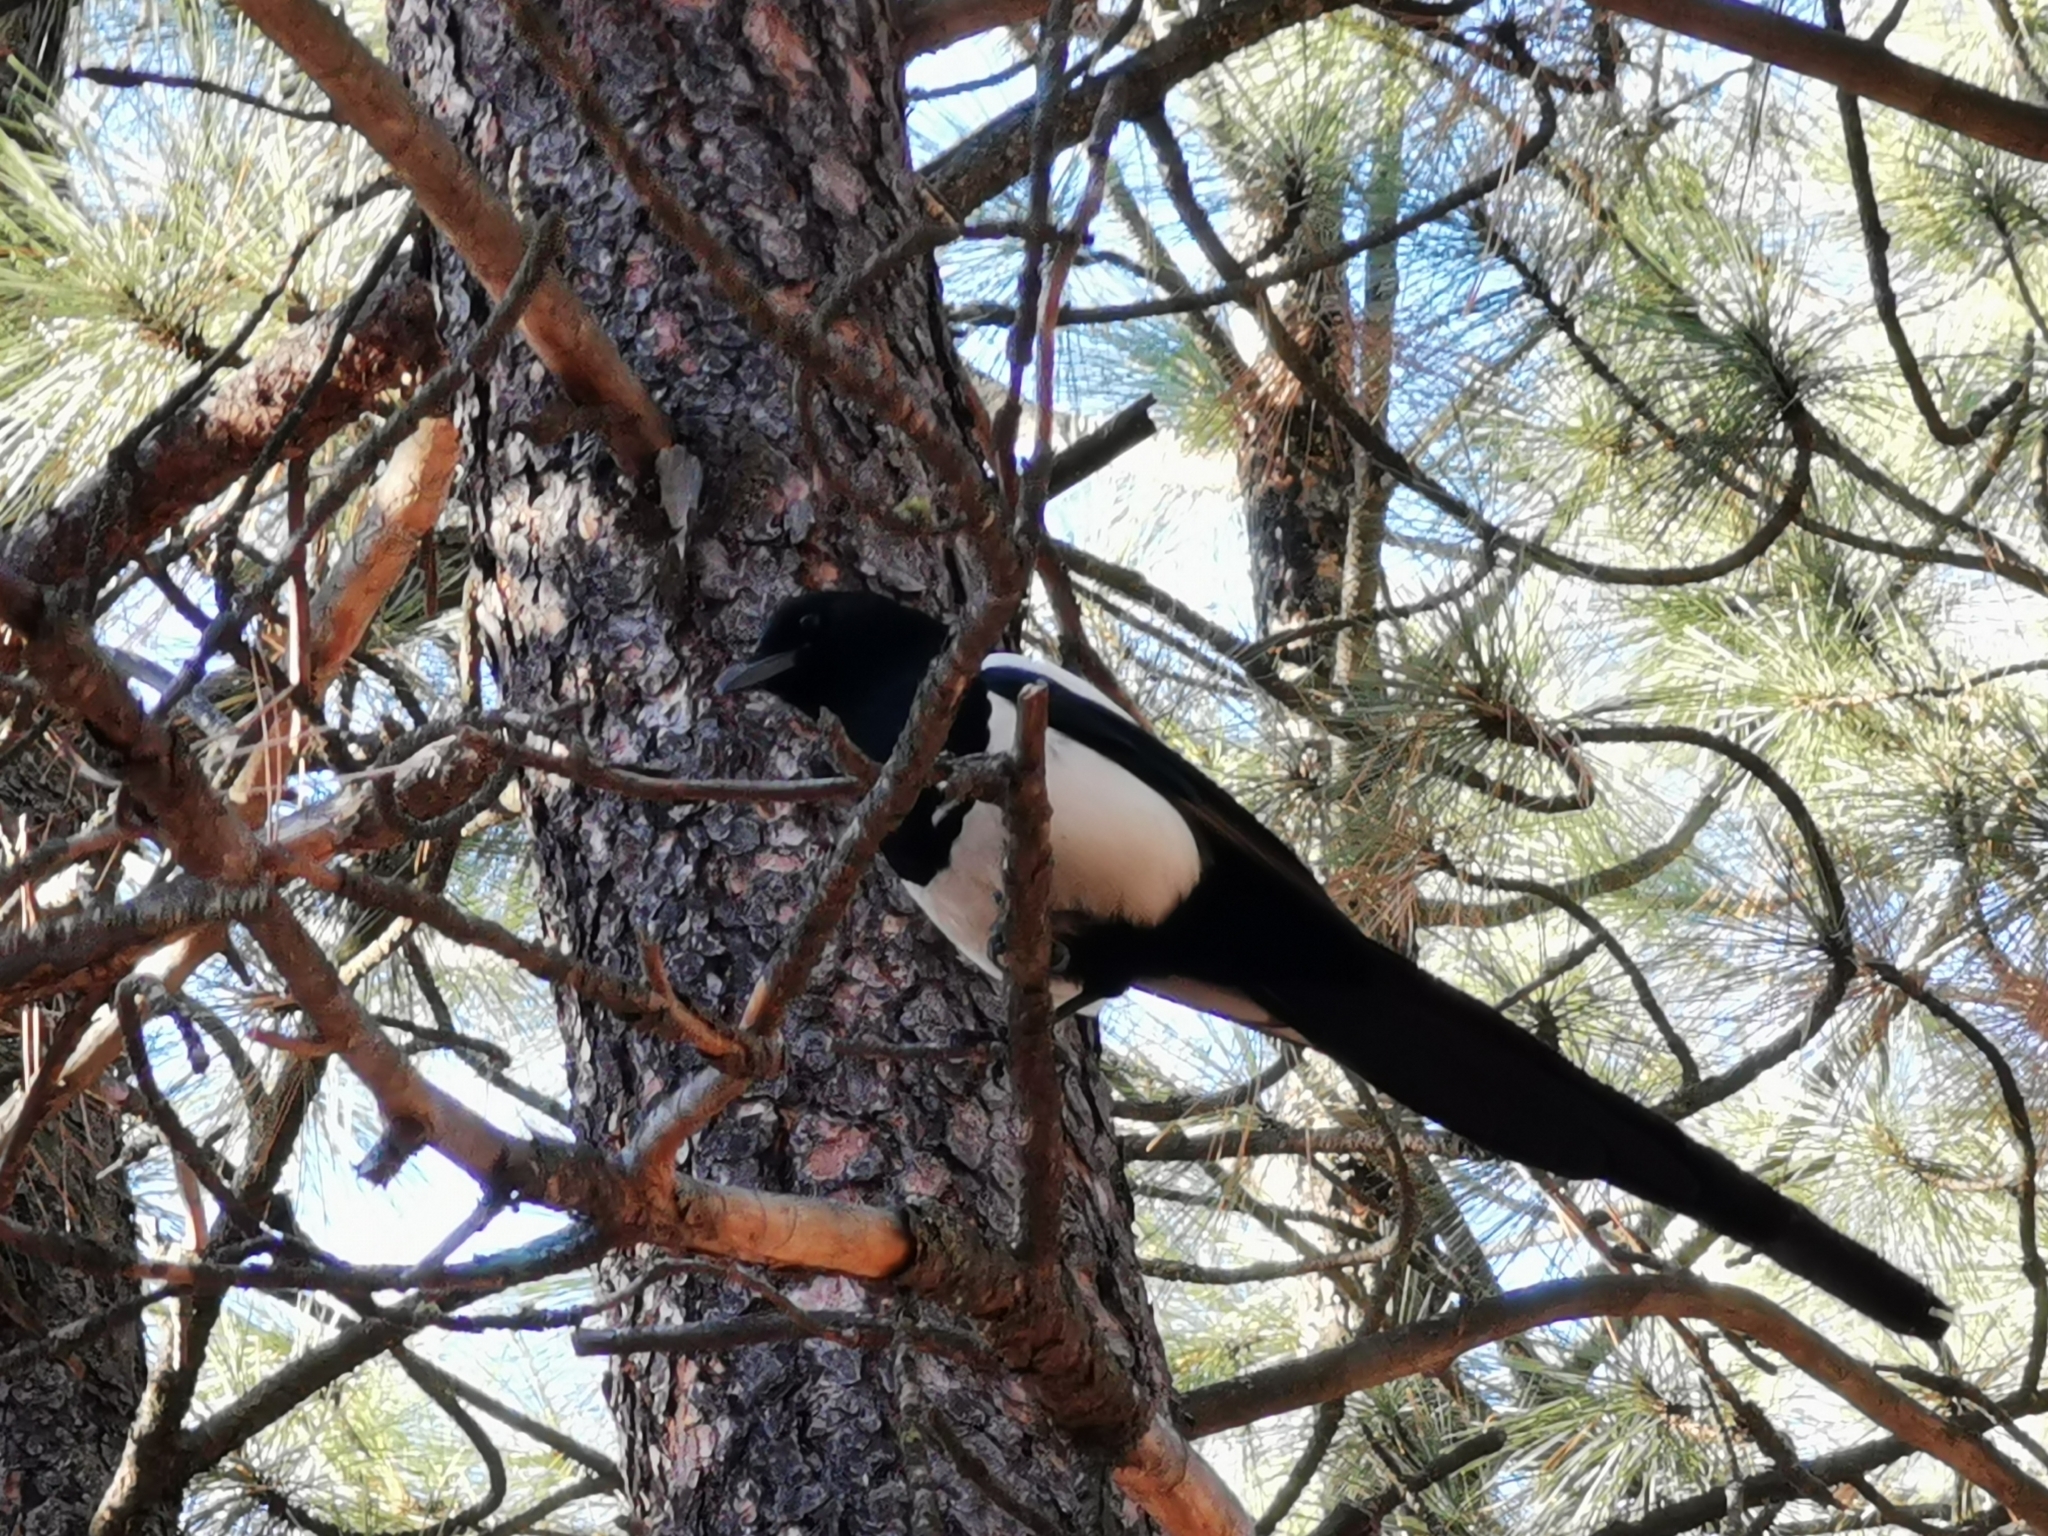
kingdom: Animalia
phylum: Chordata
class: Aves
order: Passeriformes
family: Corvidae
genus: Pica
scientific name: Pica hudsonia
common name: Black-billed magpie
